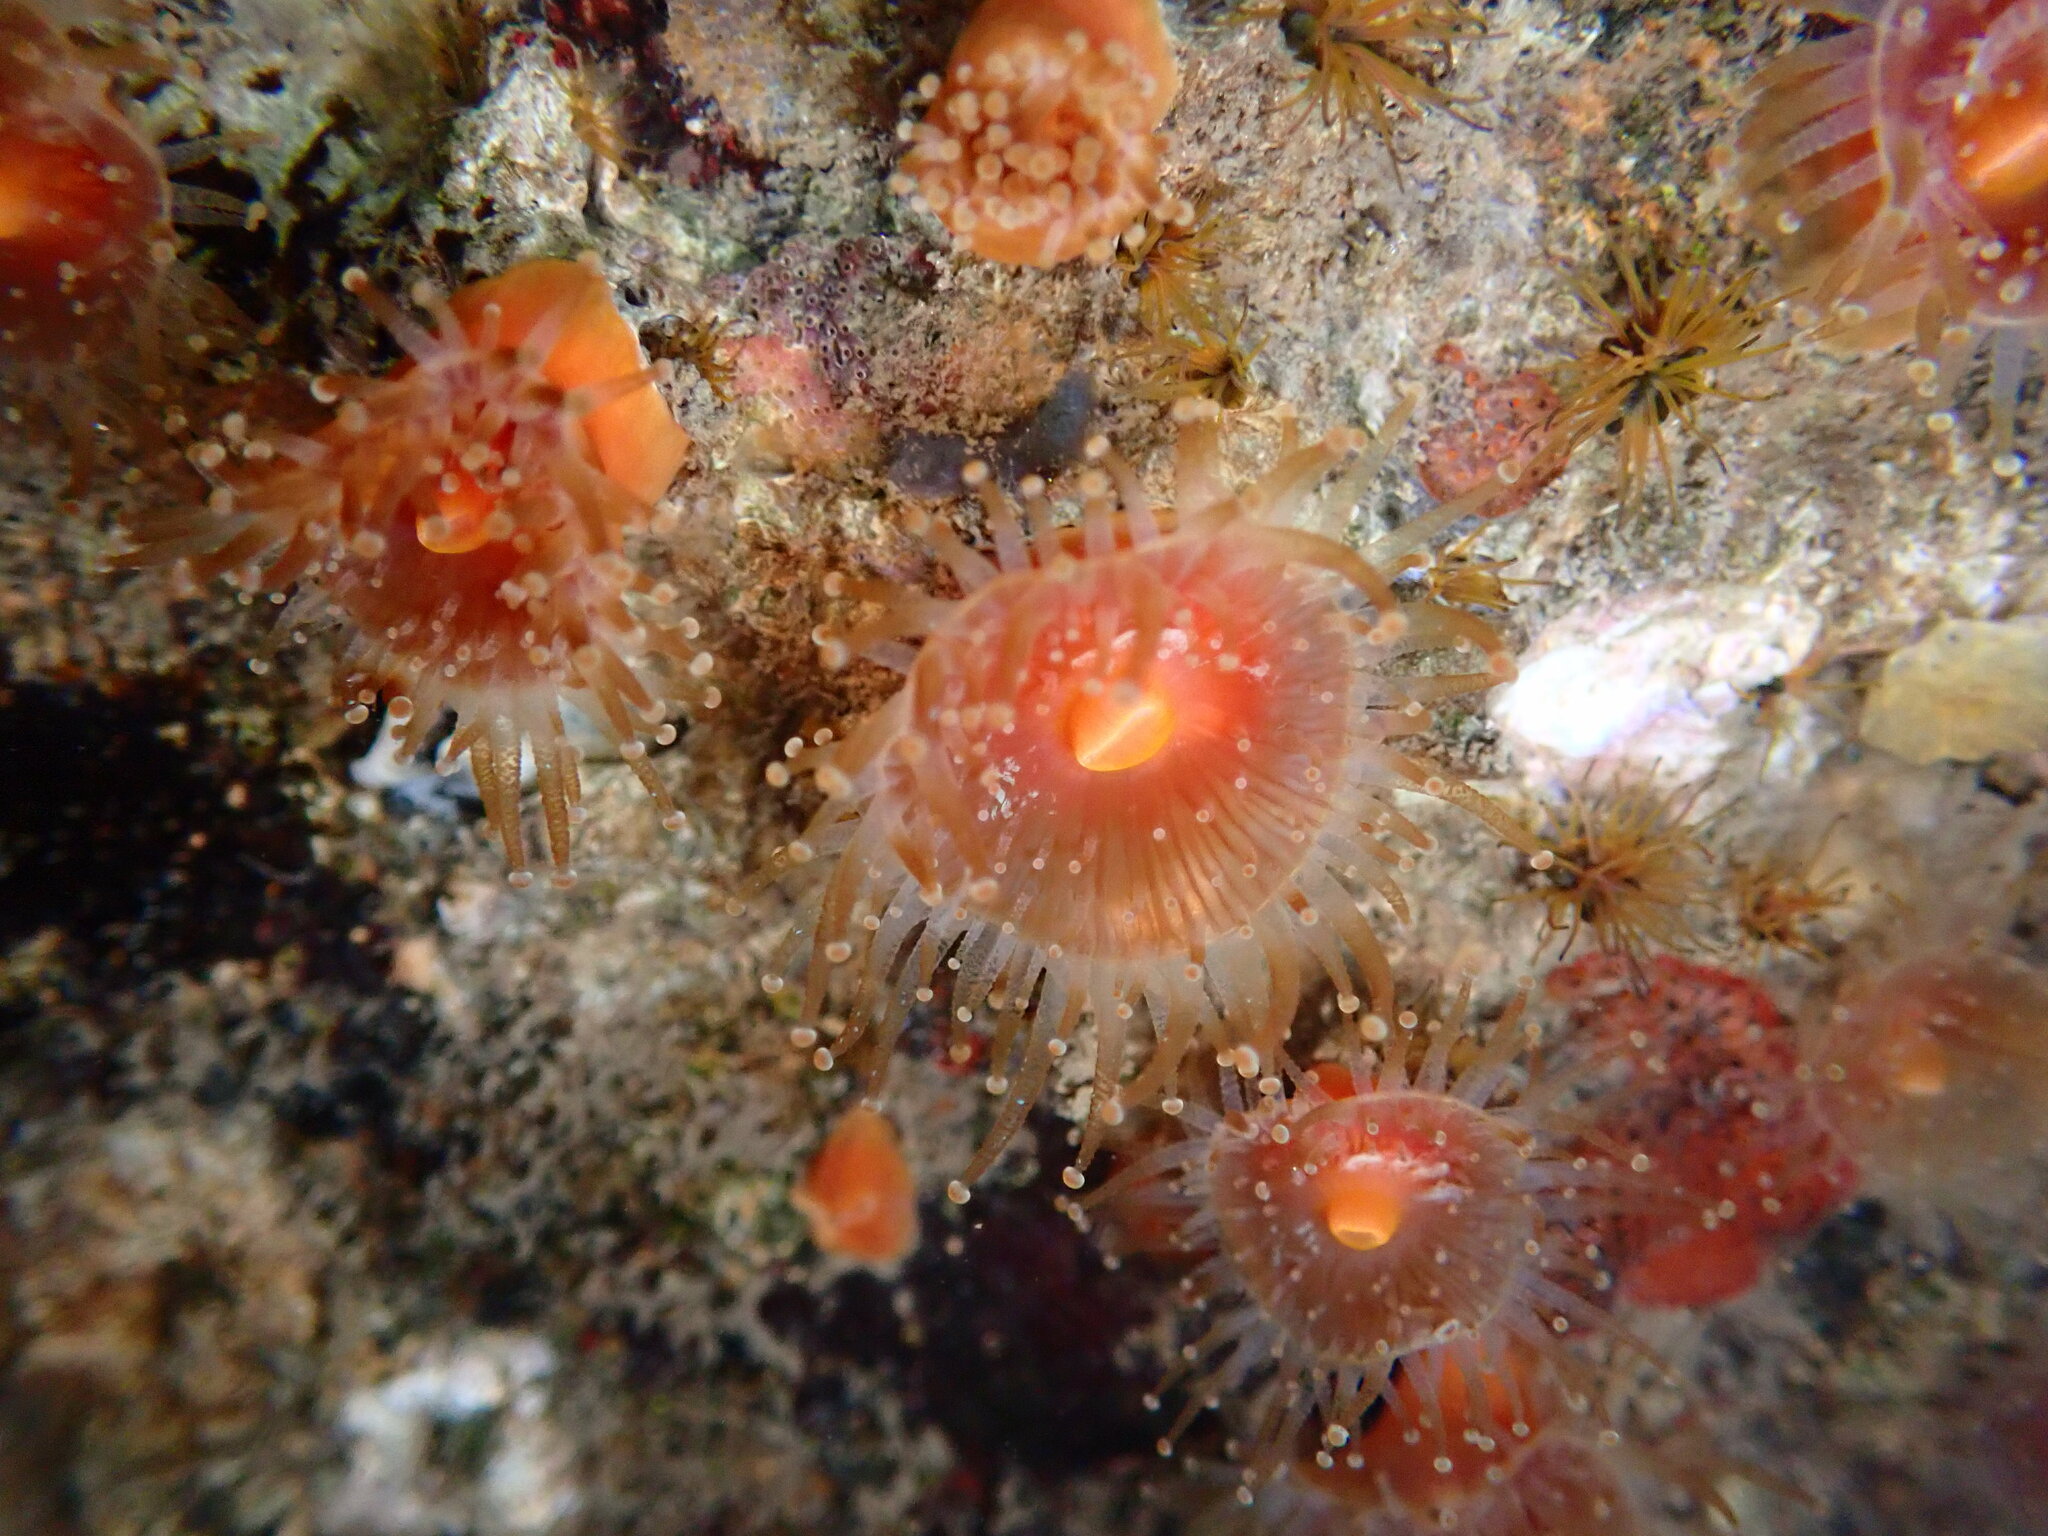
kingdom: Animalia
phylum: Cnidaria
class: Anthozoa
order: Corallimorpharia
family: Corallimorphidae
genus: Corynactis
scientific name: Corynactis californica
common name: Strawberry corallimorpharian
